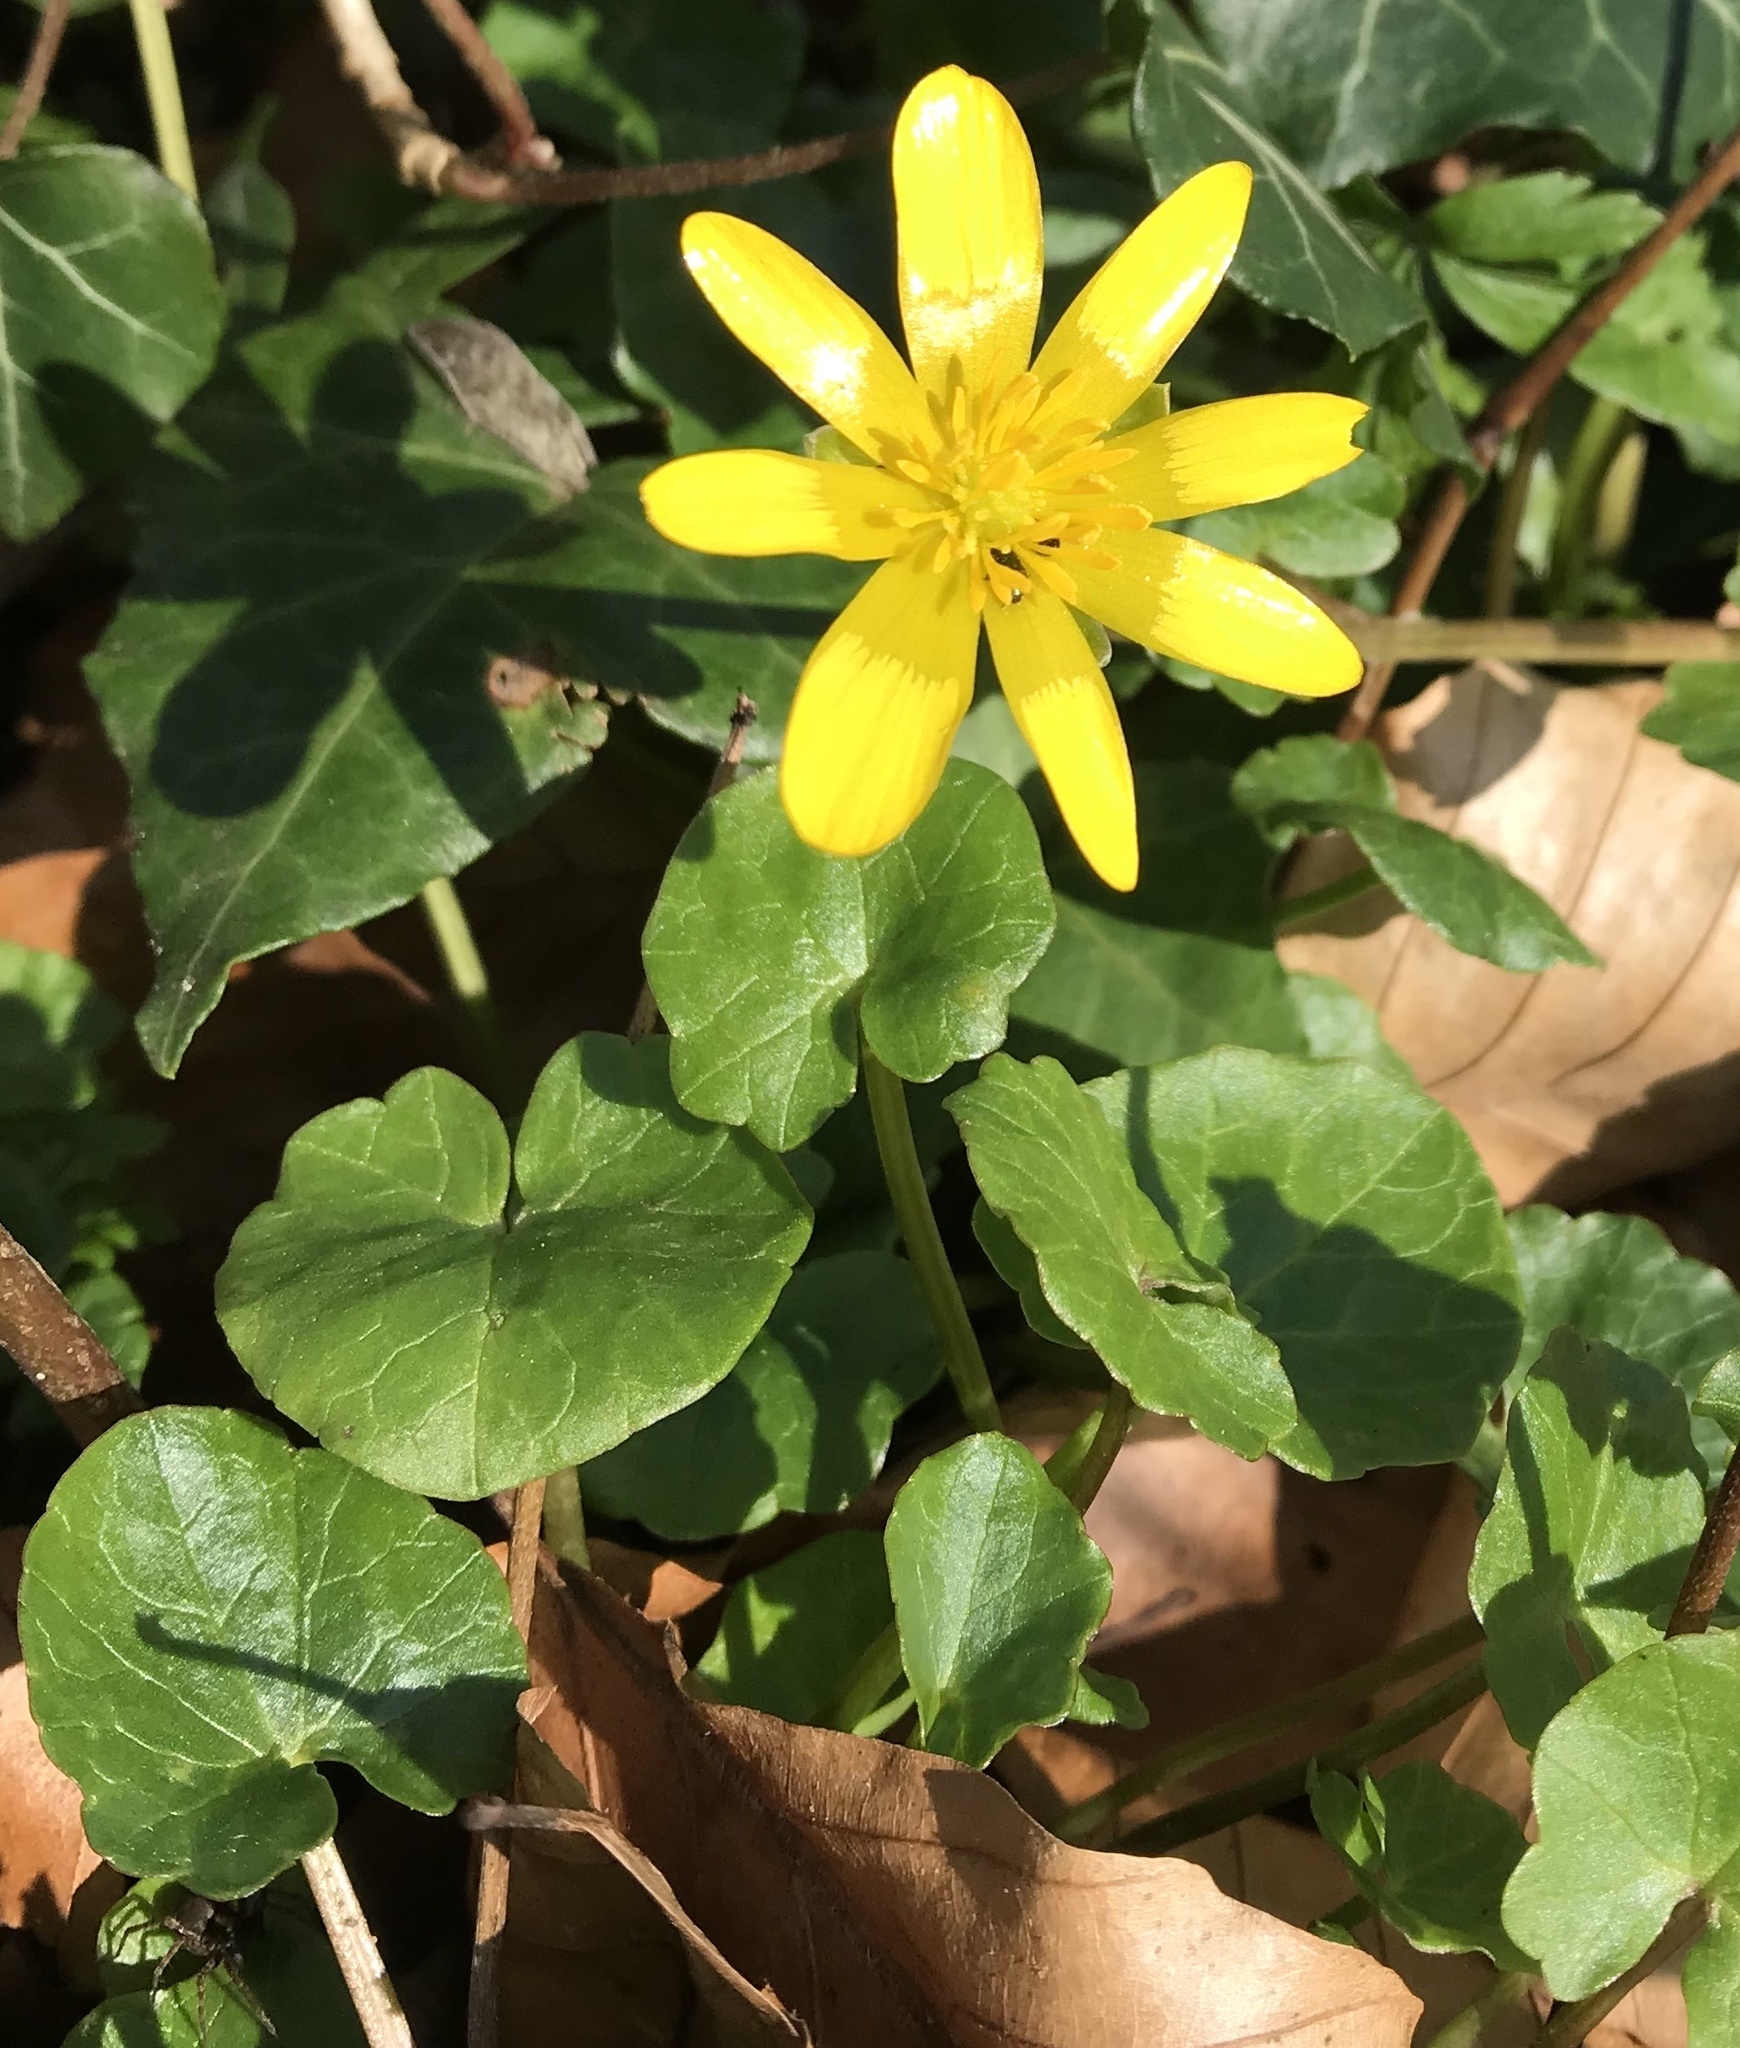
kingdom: Plantae
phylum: Tracheophyta
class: Magnoliopsida
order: Ranunculales
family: Ranunculaceae
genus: Ficaria
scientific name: Ficaria verna
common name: Lesser celandine
